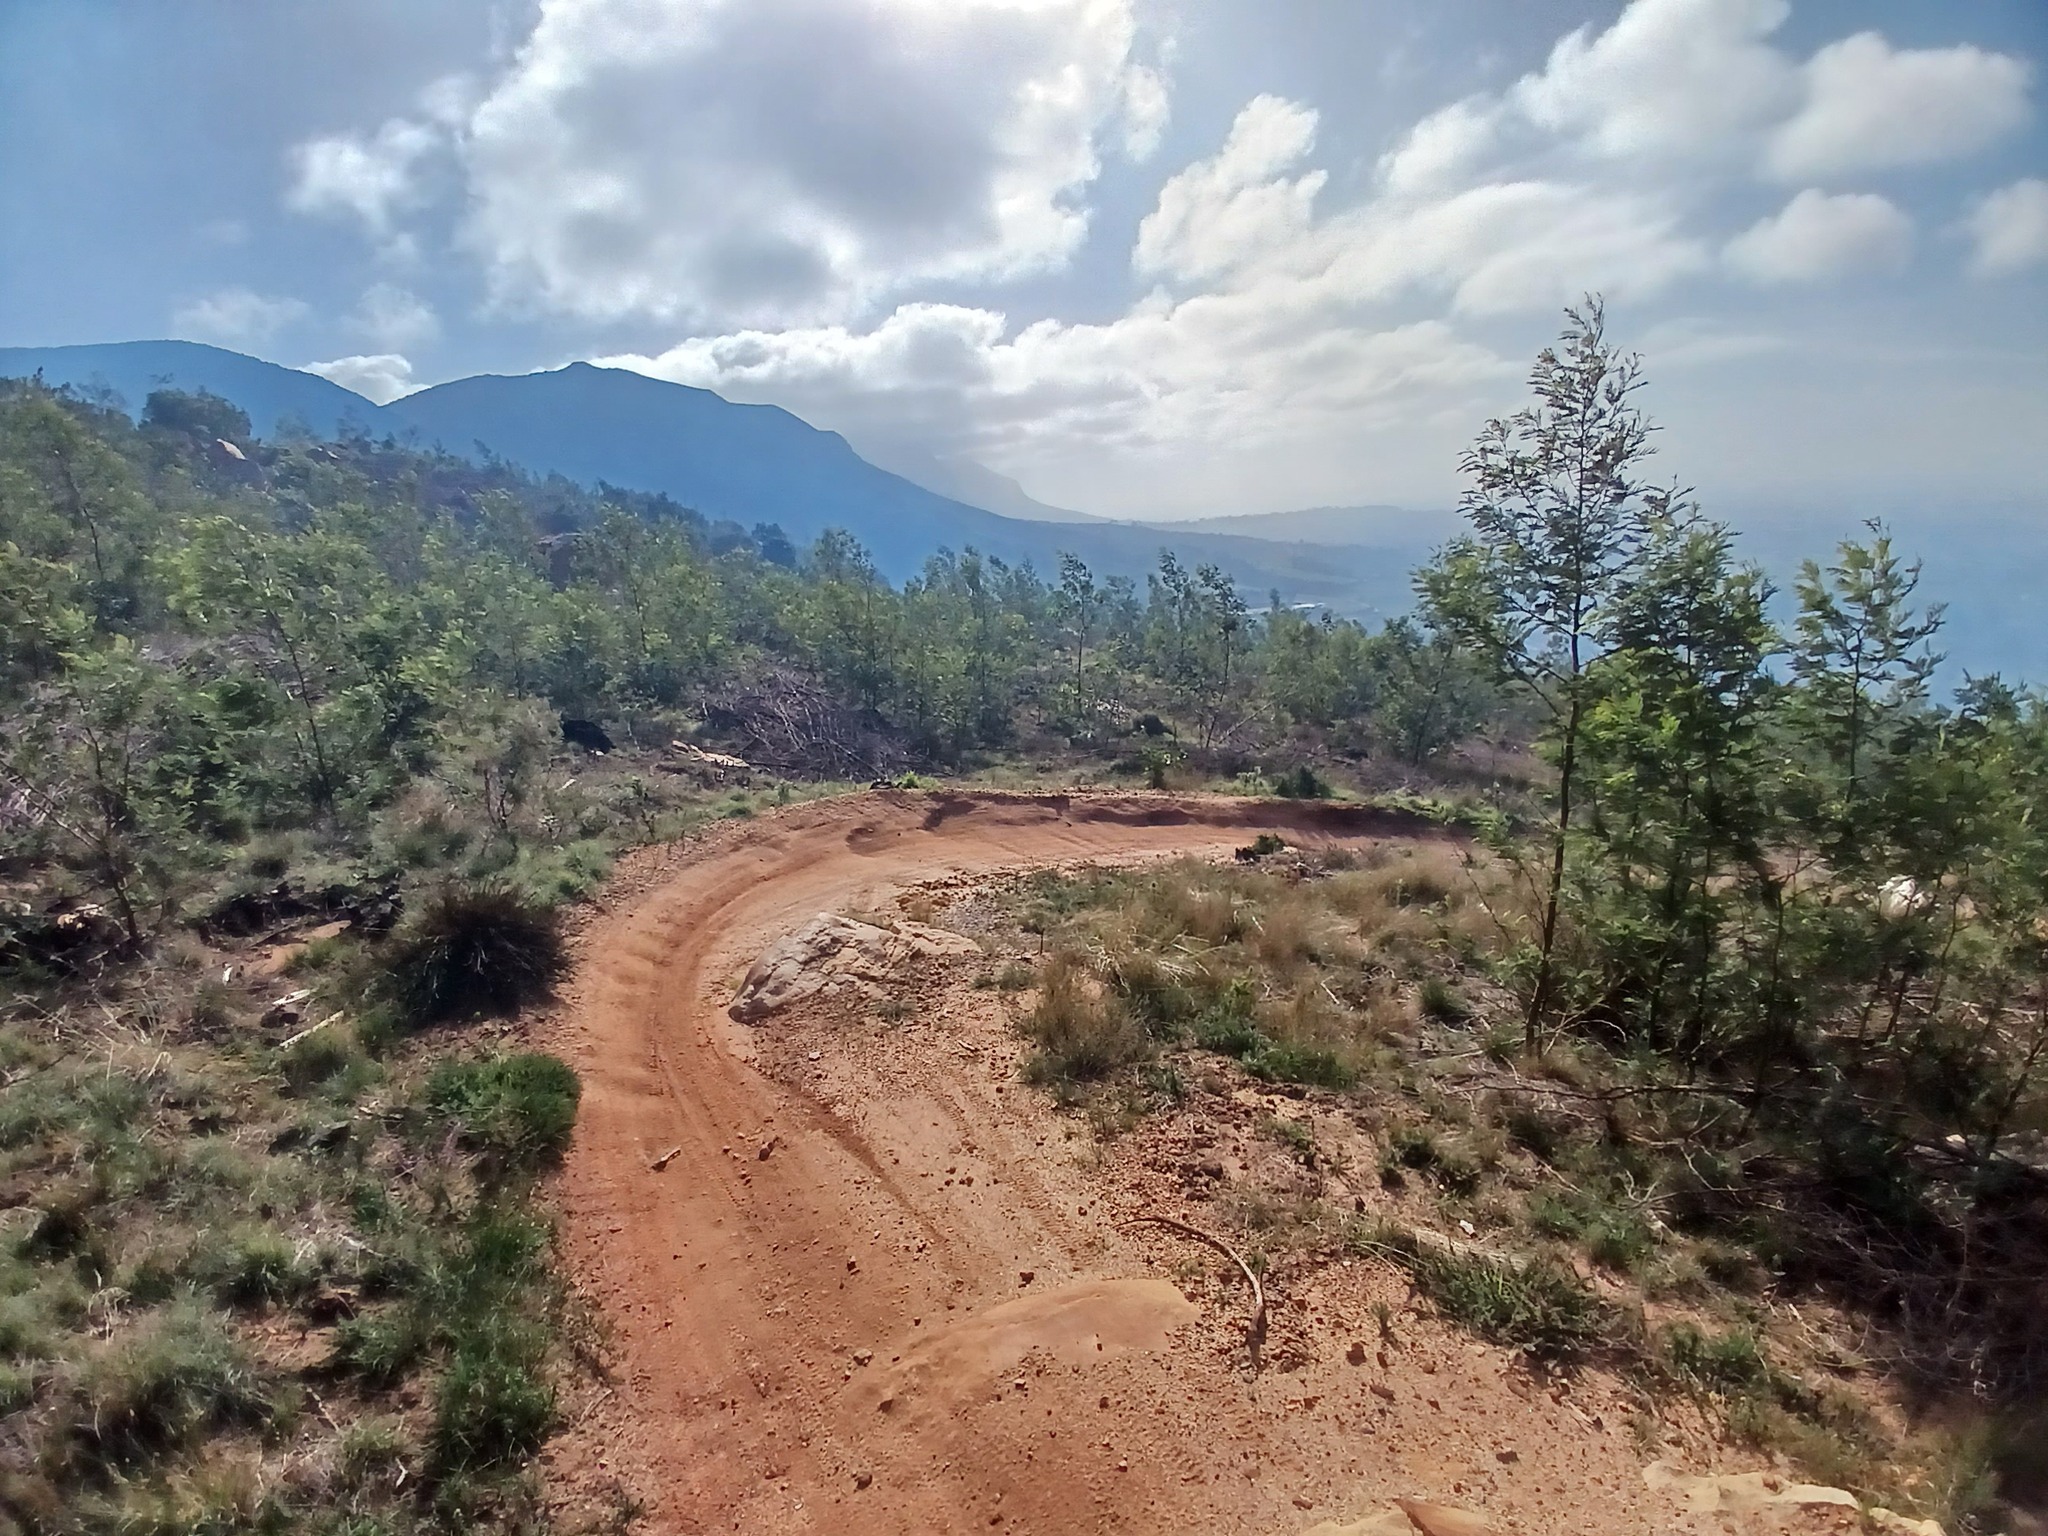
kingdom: Plantae
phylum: Tracheophyta
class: Magnoliopsida
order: Fabales
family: Fabaceae
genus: Acacia
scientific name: Acacia mearnsii
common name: Black wattle
